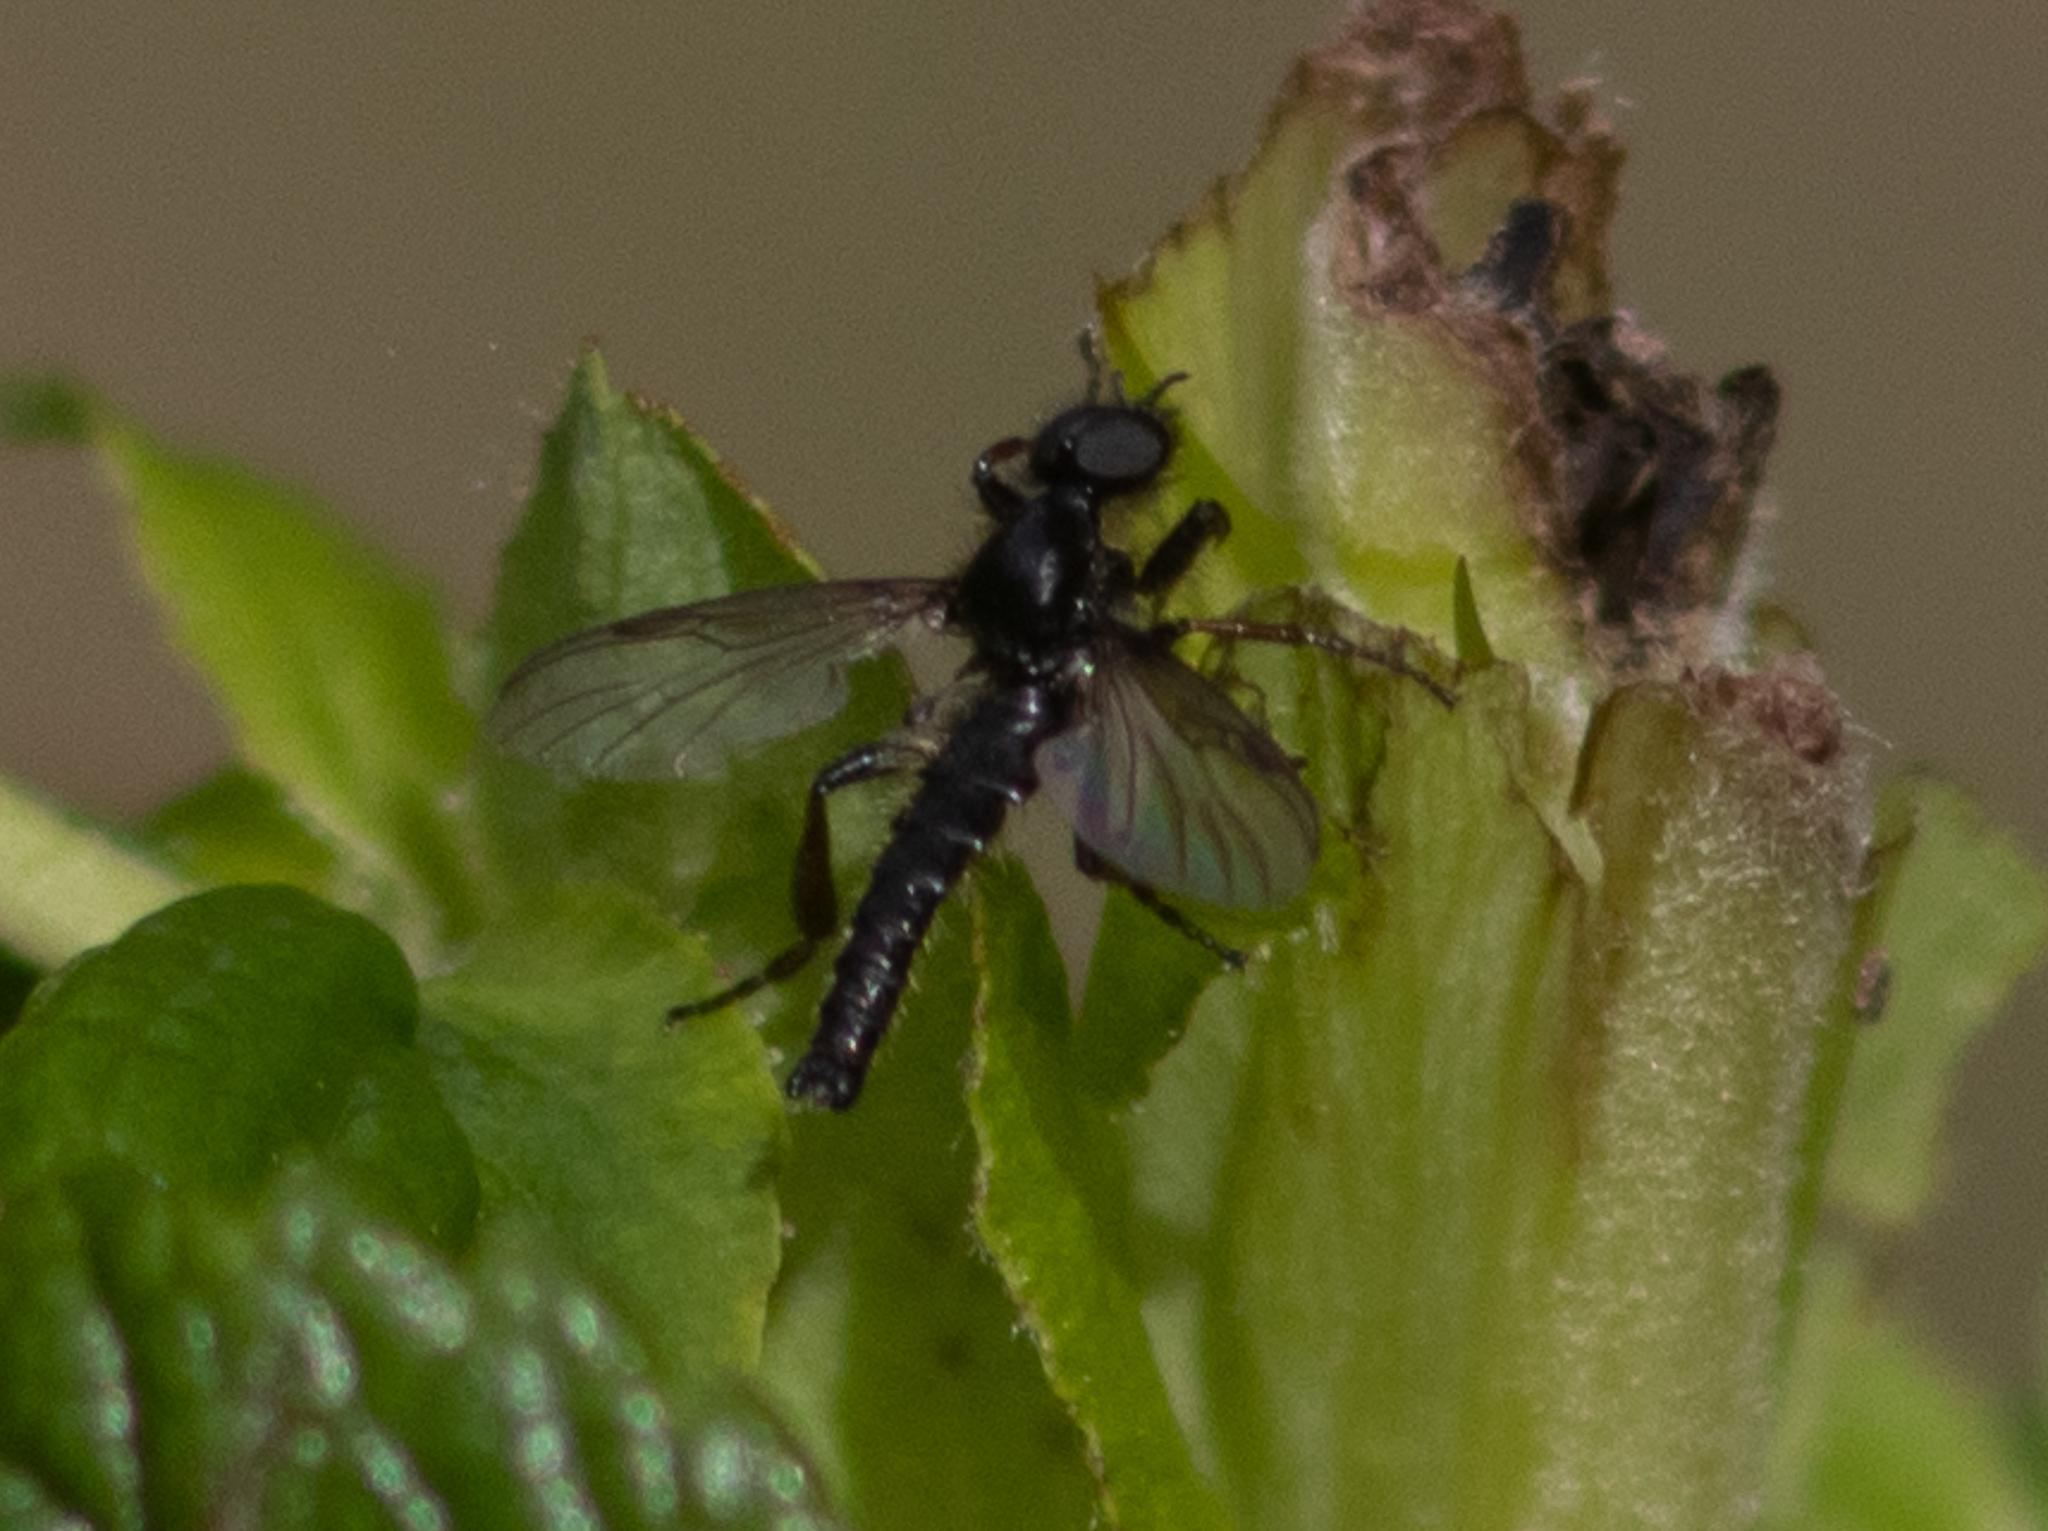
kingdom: Animalia
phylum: Arthropoda
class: Insecta
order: Diptera
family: Bibionidae
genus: Bibio
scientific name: Bibio lanigerus
